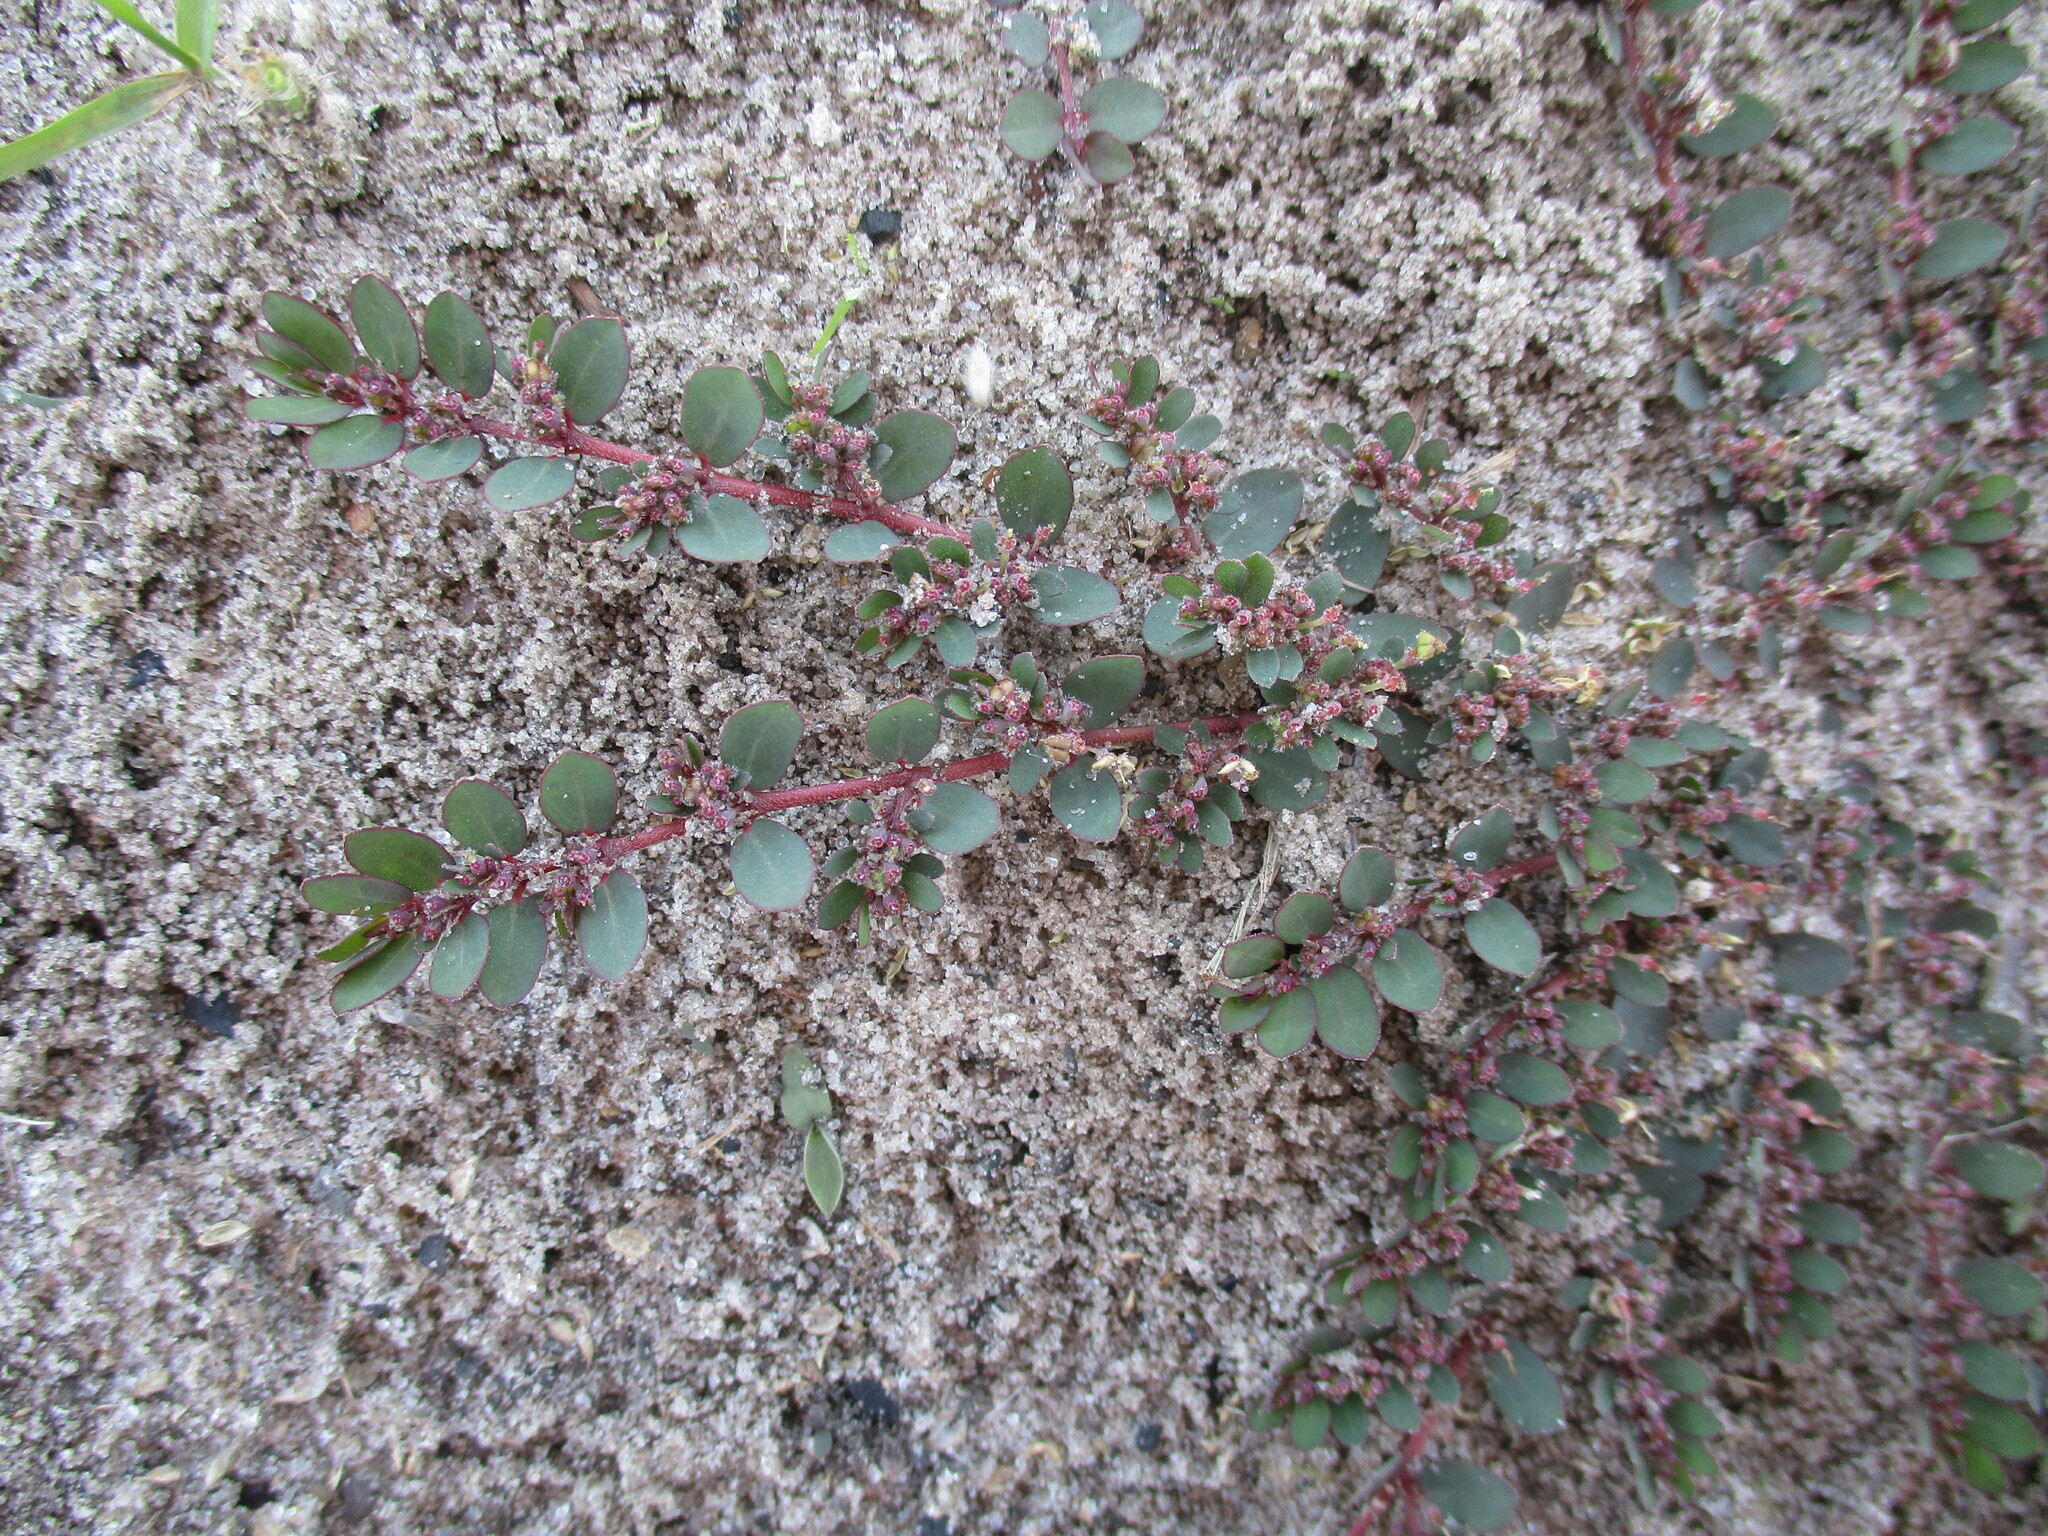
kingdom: Plantae
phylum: Tracheophyta
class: Magnoliopsida
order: Malpighiales
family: Euphorbiaceae
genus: Euphorbia
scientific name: Euphorbia prostrata
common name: Prostrate sandmat
